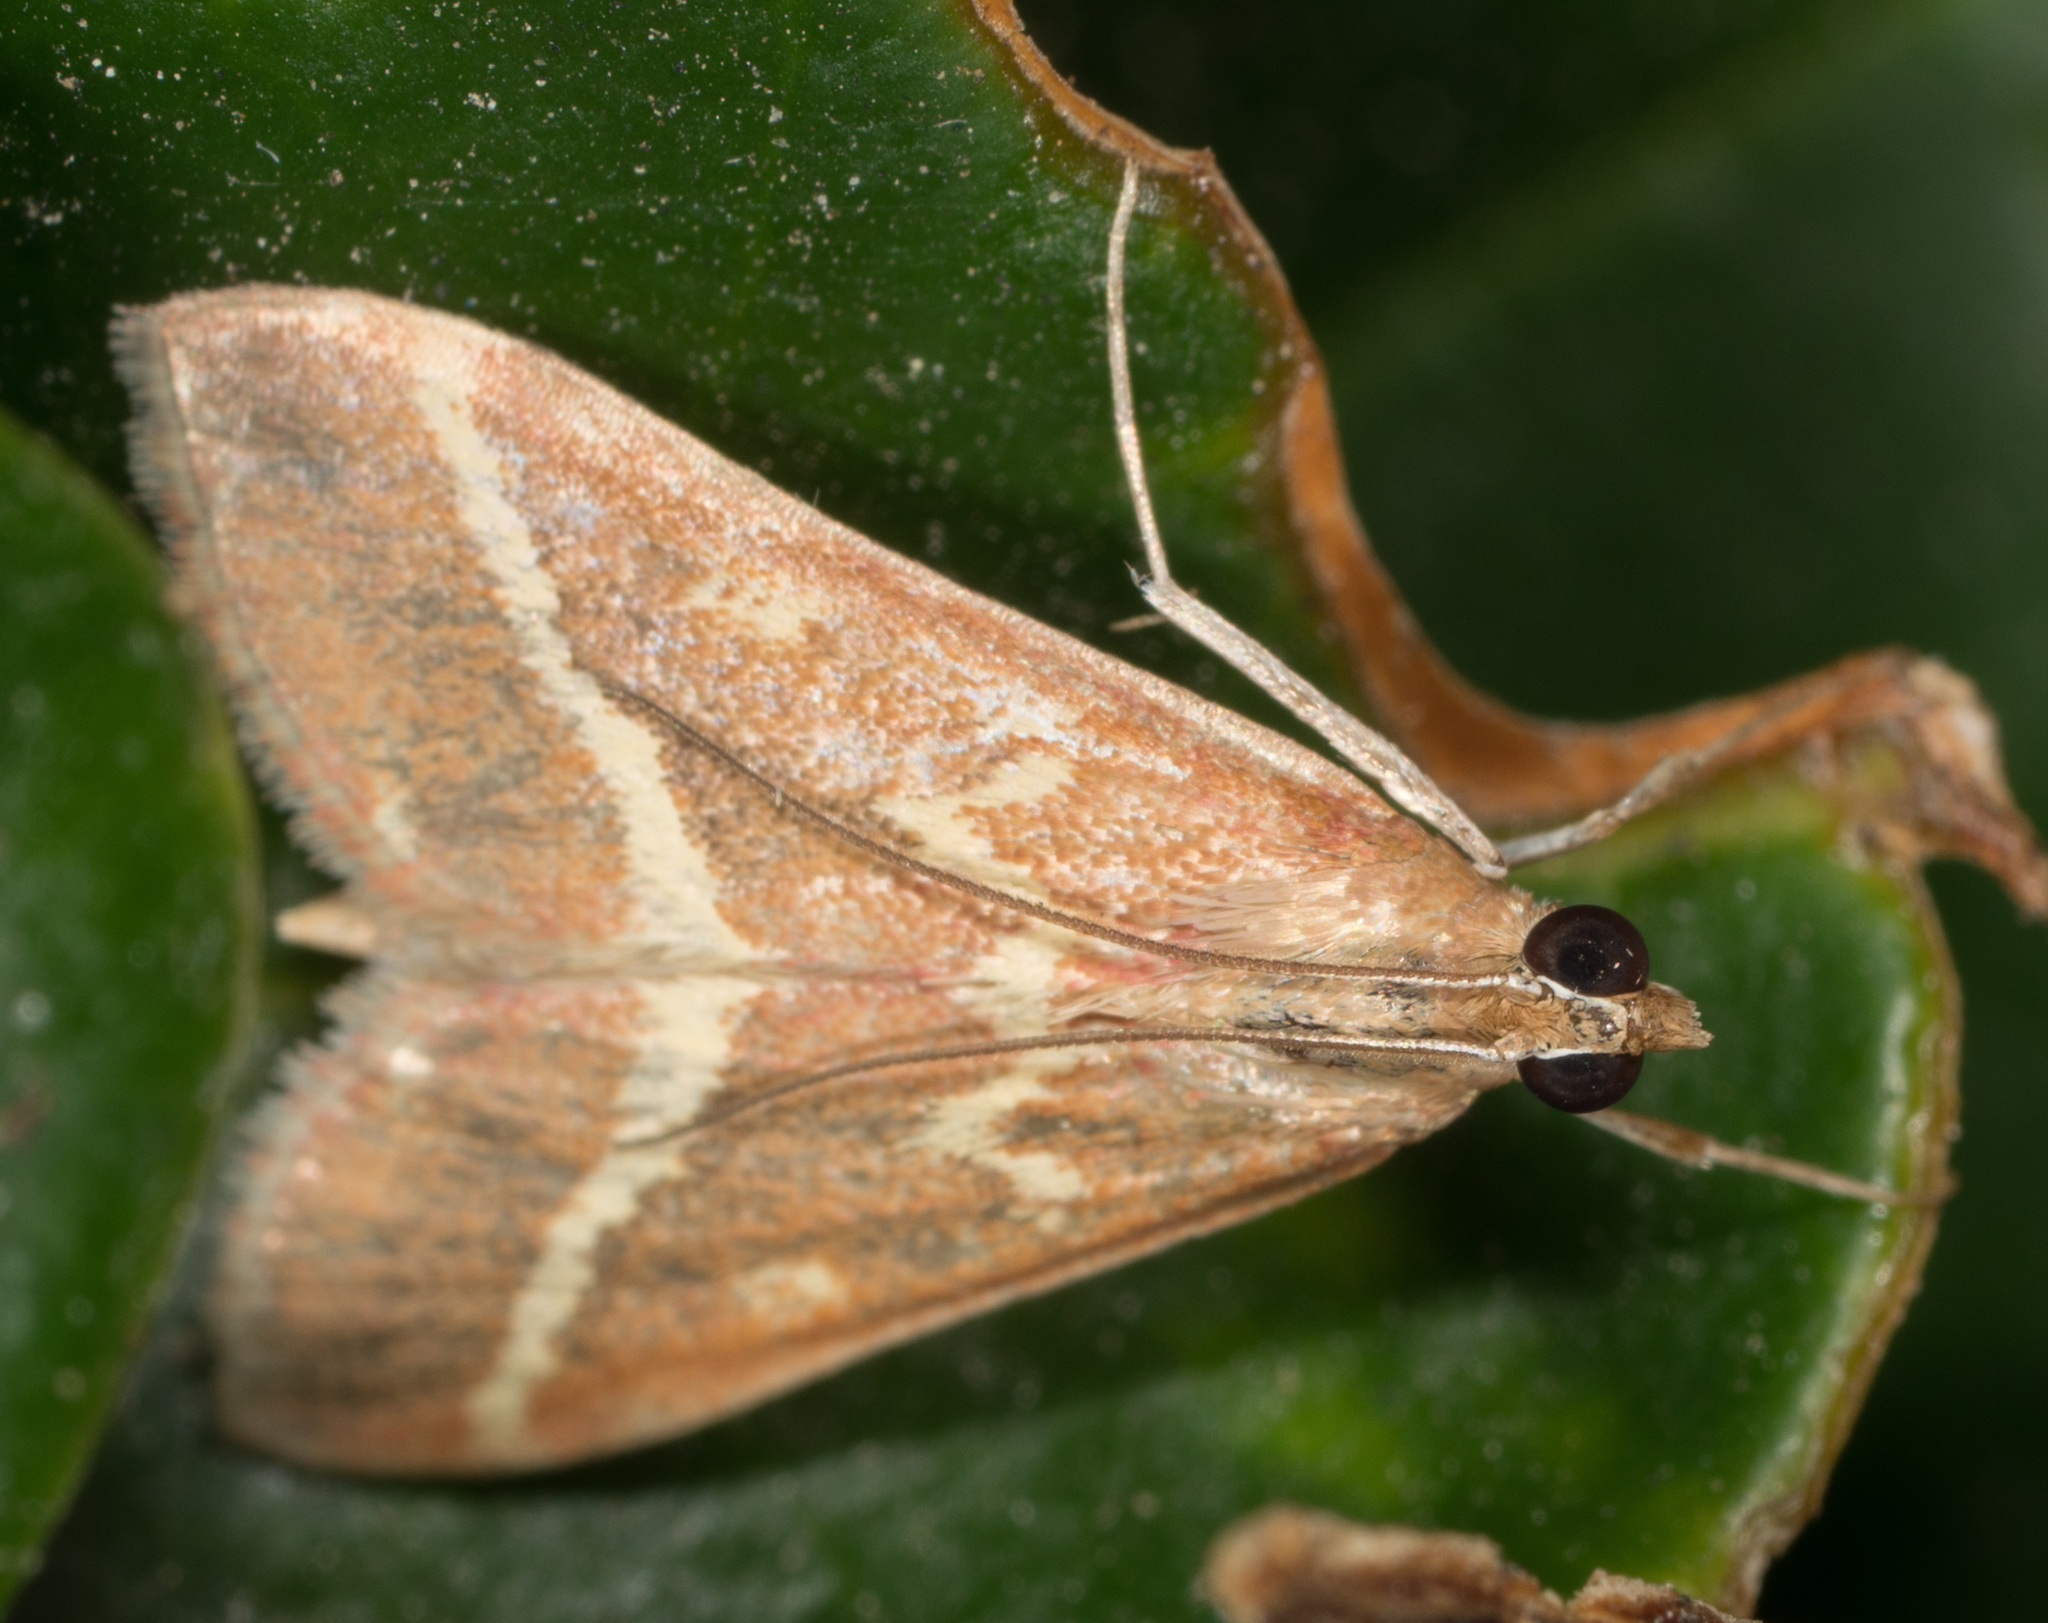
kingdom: Animalia
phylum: Arthropoda
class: Insecta
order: Lepidoptera
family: Crambidae
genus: Pyrausta
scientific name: Pyrausta volupialis
